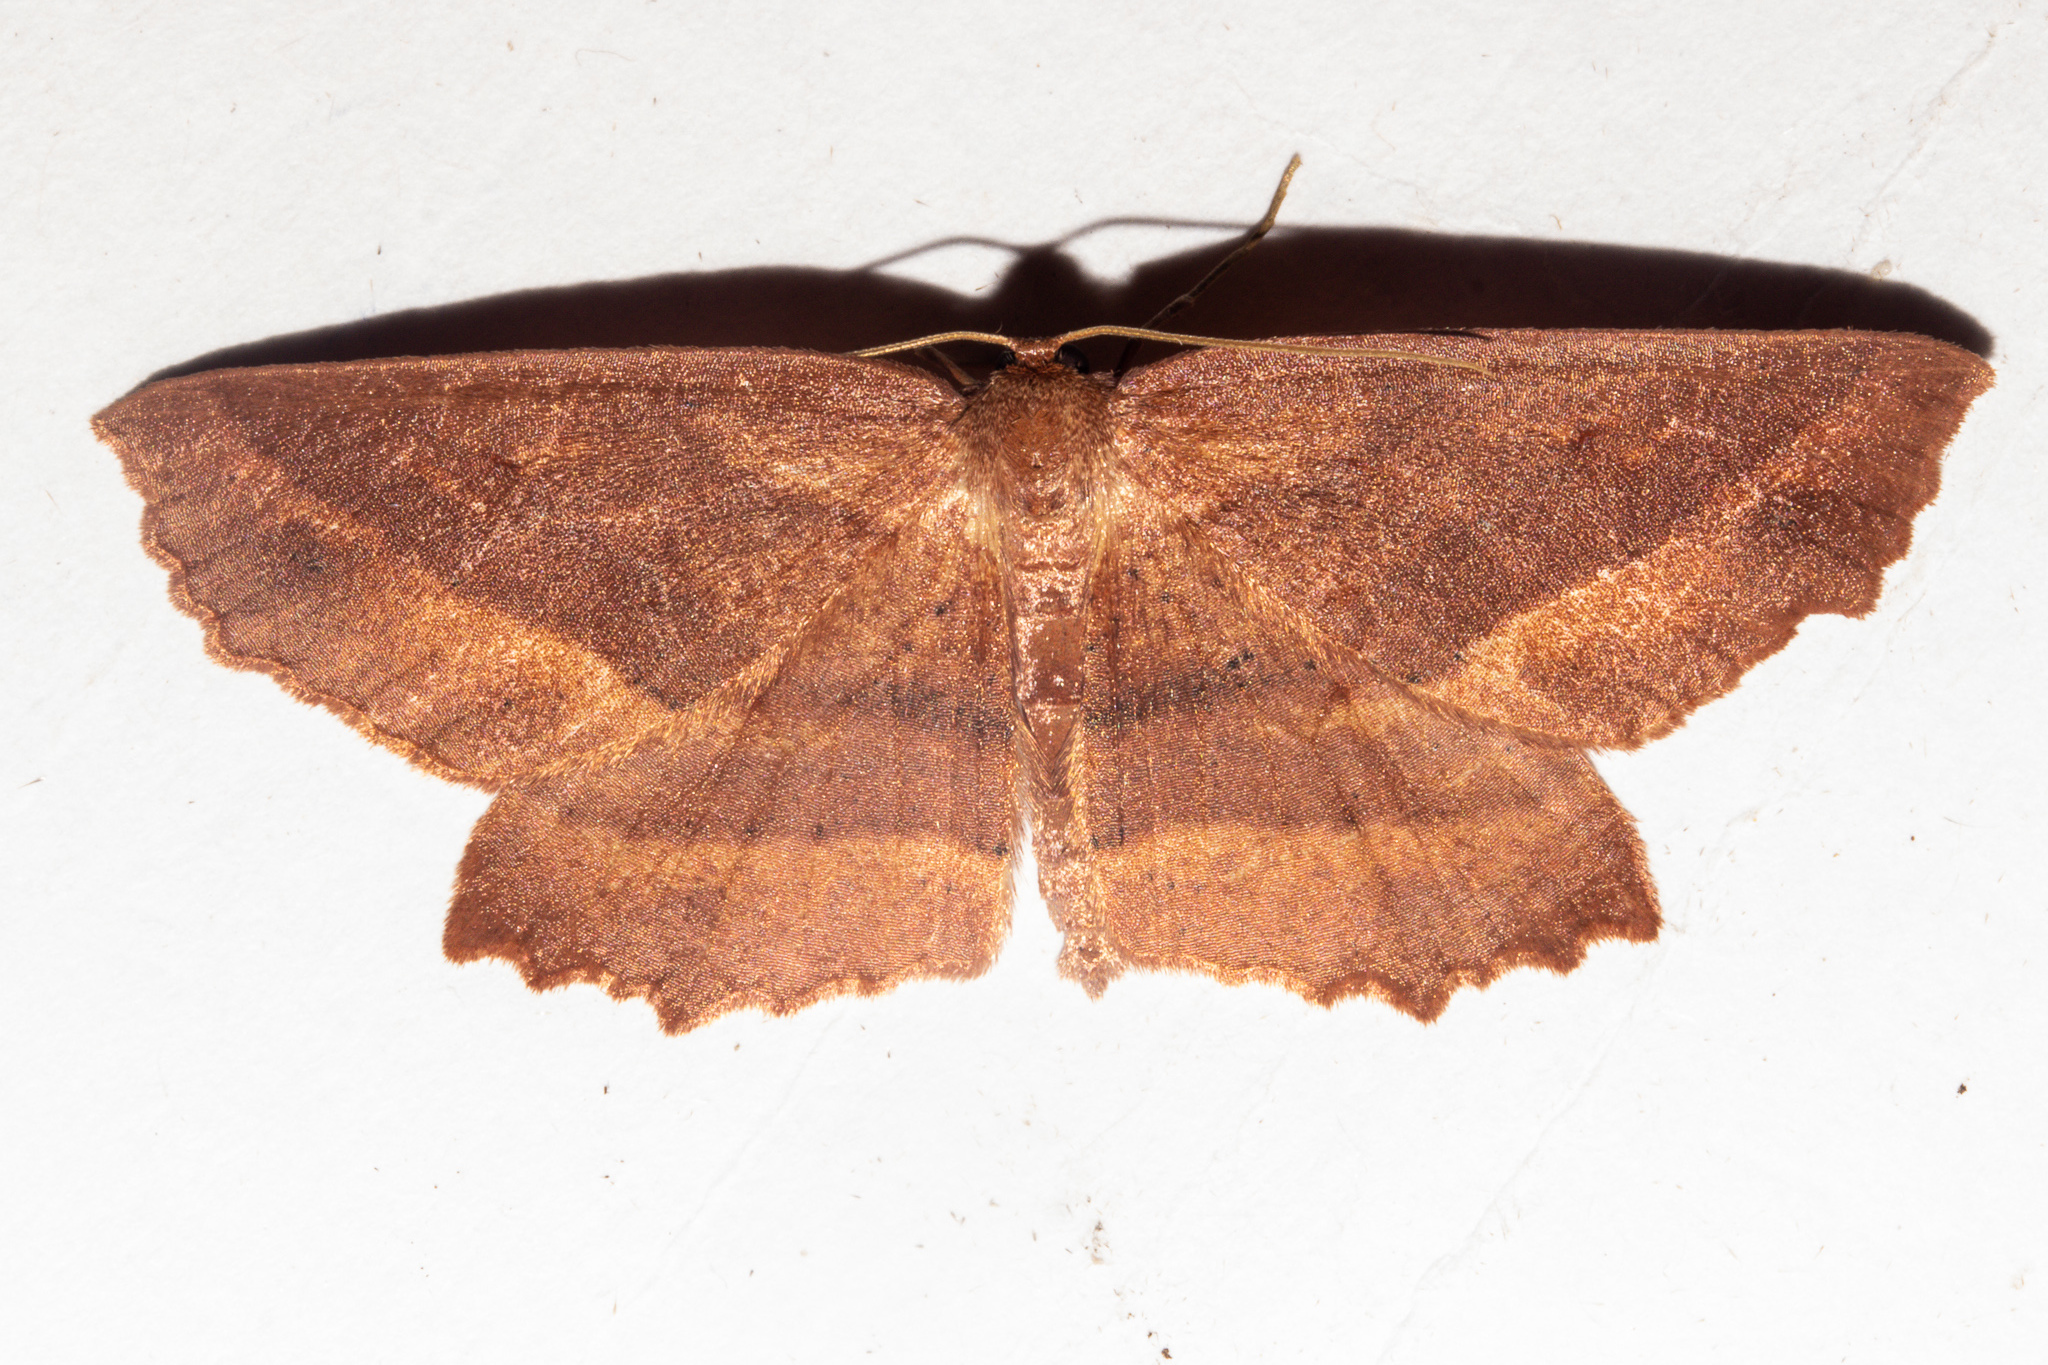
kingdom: Animalia
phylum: Arthropoda
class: Insecta
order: Lepidoptera
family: Geometridae
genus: Xyridacma
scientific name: Xyridacma veronicae
